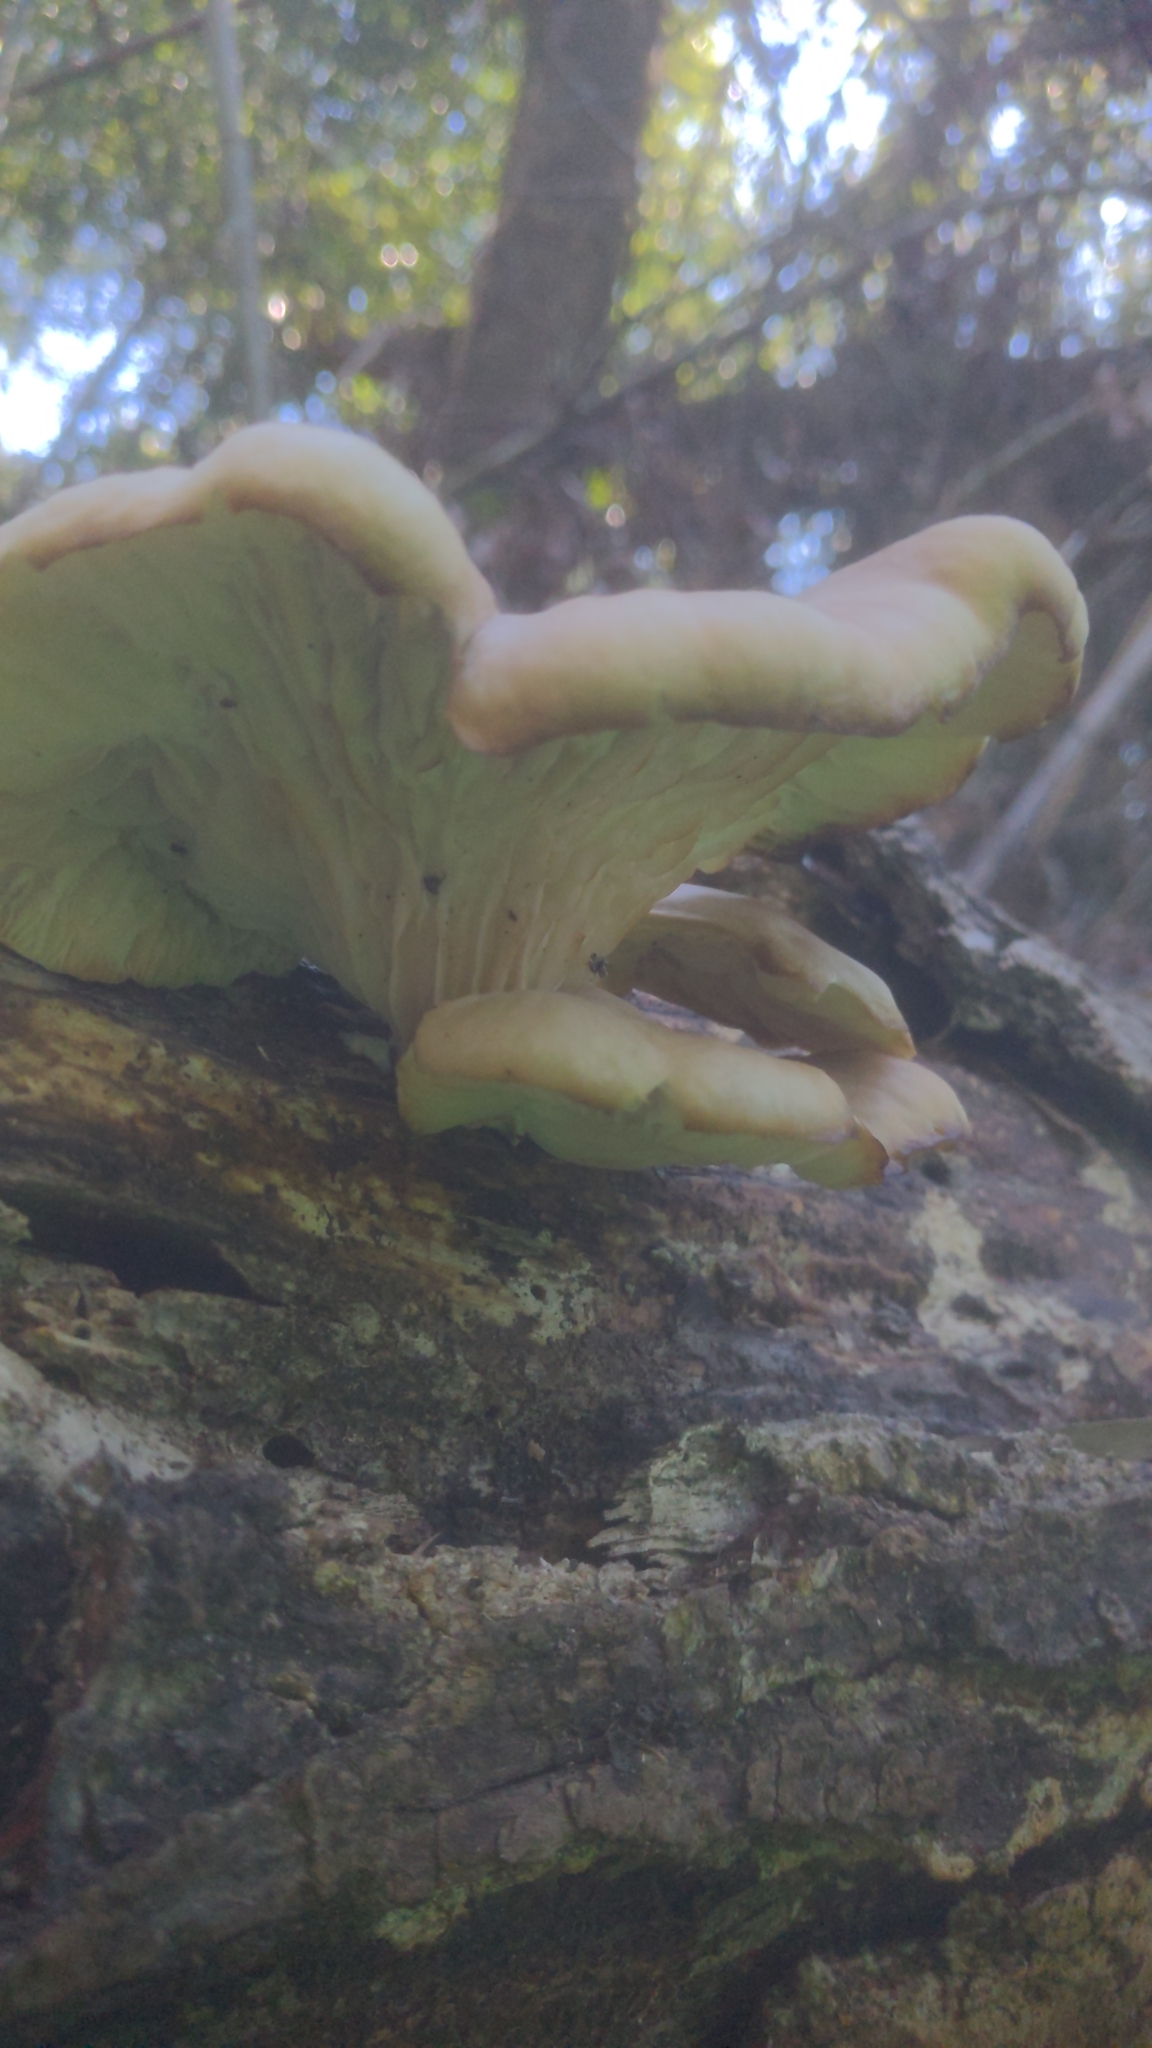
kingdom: Fungi
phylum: Basidiomycota
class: Agaricomycetes
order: Agaricales
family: Pleurotaceae
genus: Pleurotus
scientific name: Pleurotus ostreatus
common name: Oyster mushroom
